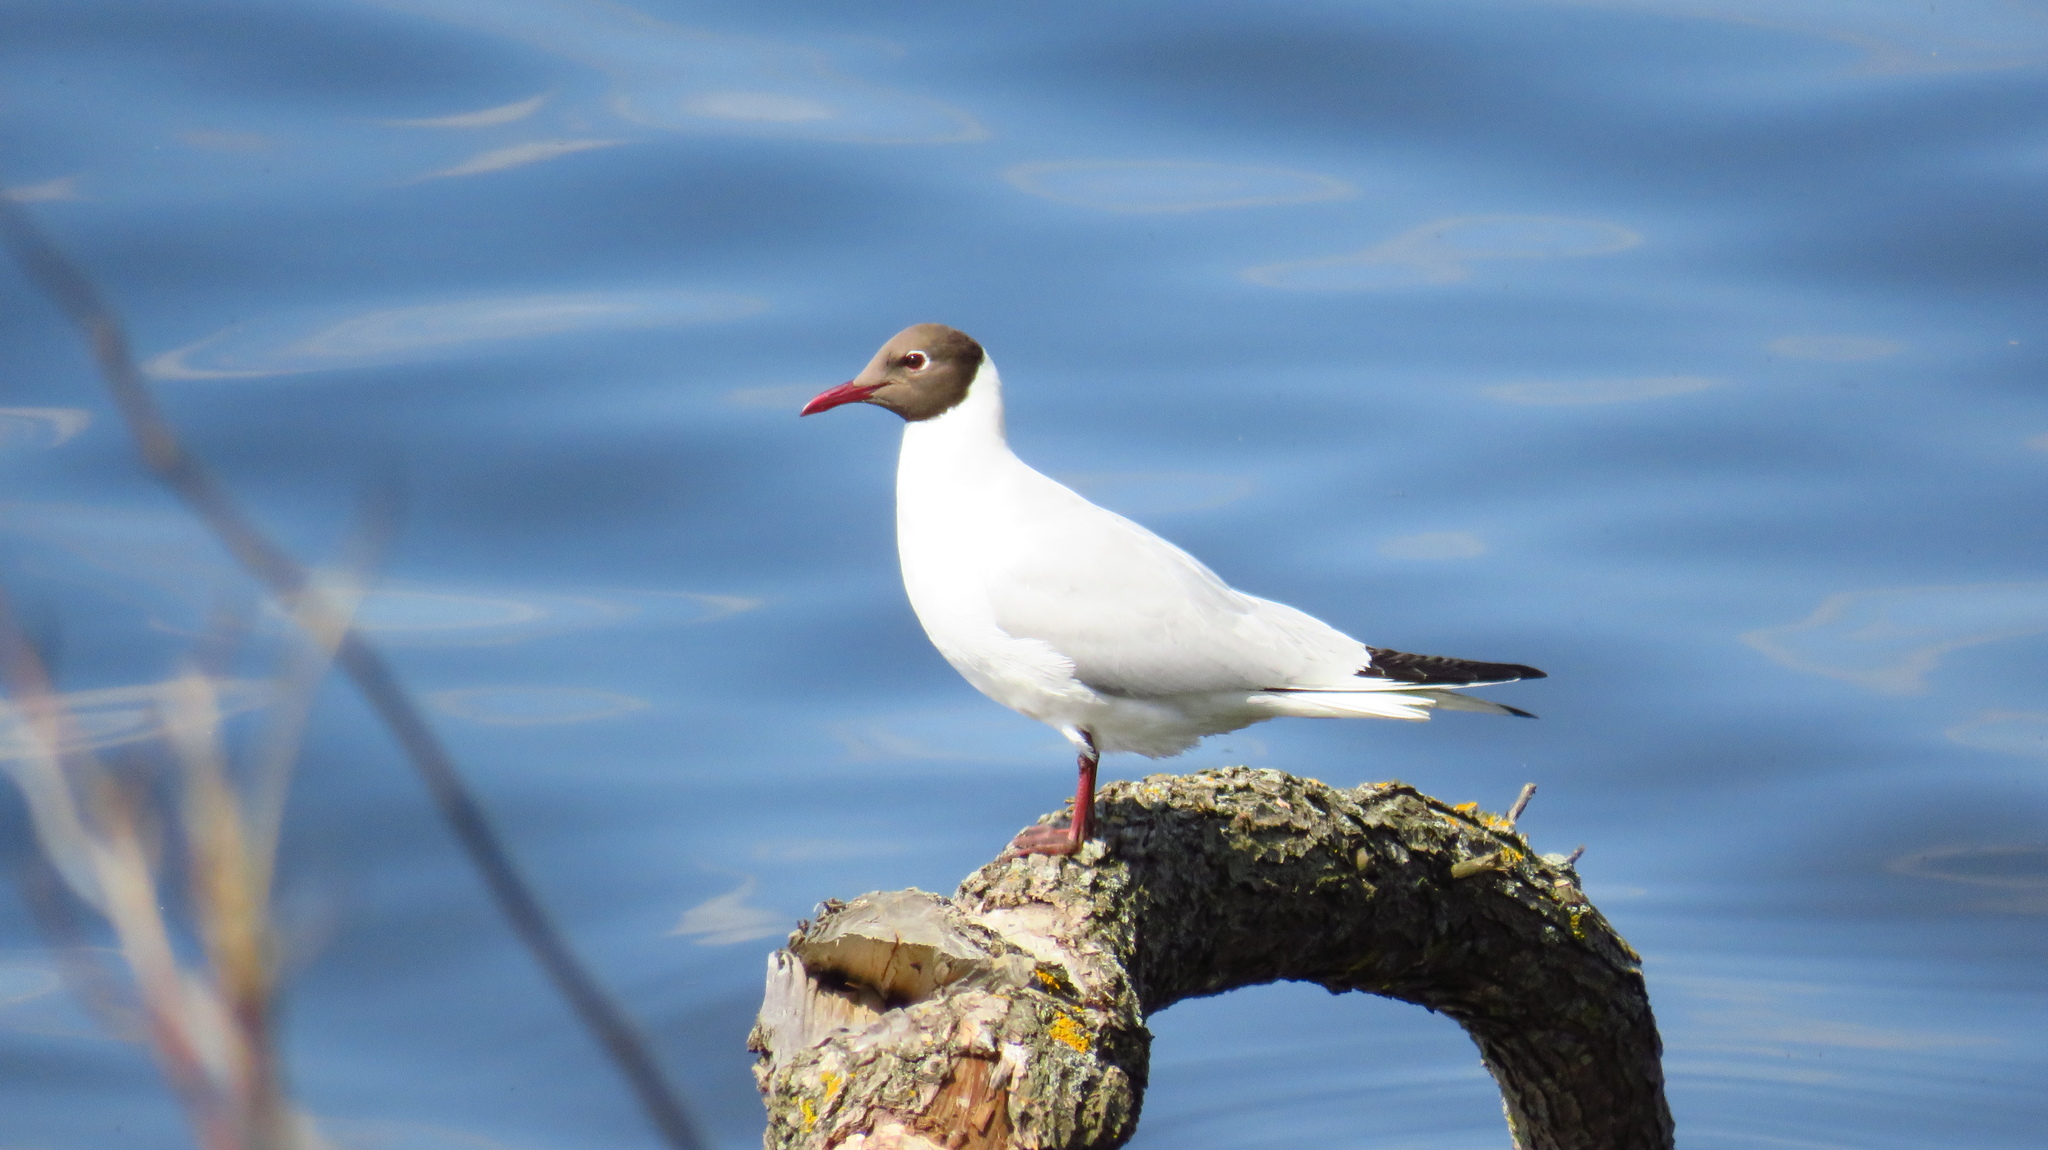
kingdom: Animalia
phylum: Chordata
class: Aves
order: Charadriiformes
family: Laridae
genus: Chroicocephalus
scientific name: Chroicocephalus ridibundus
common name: Black-headed gull
